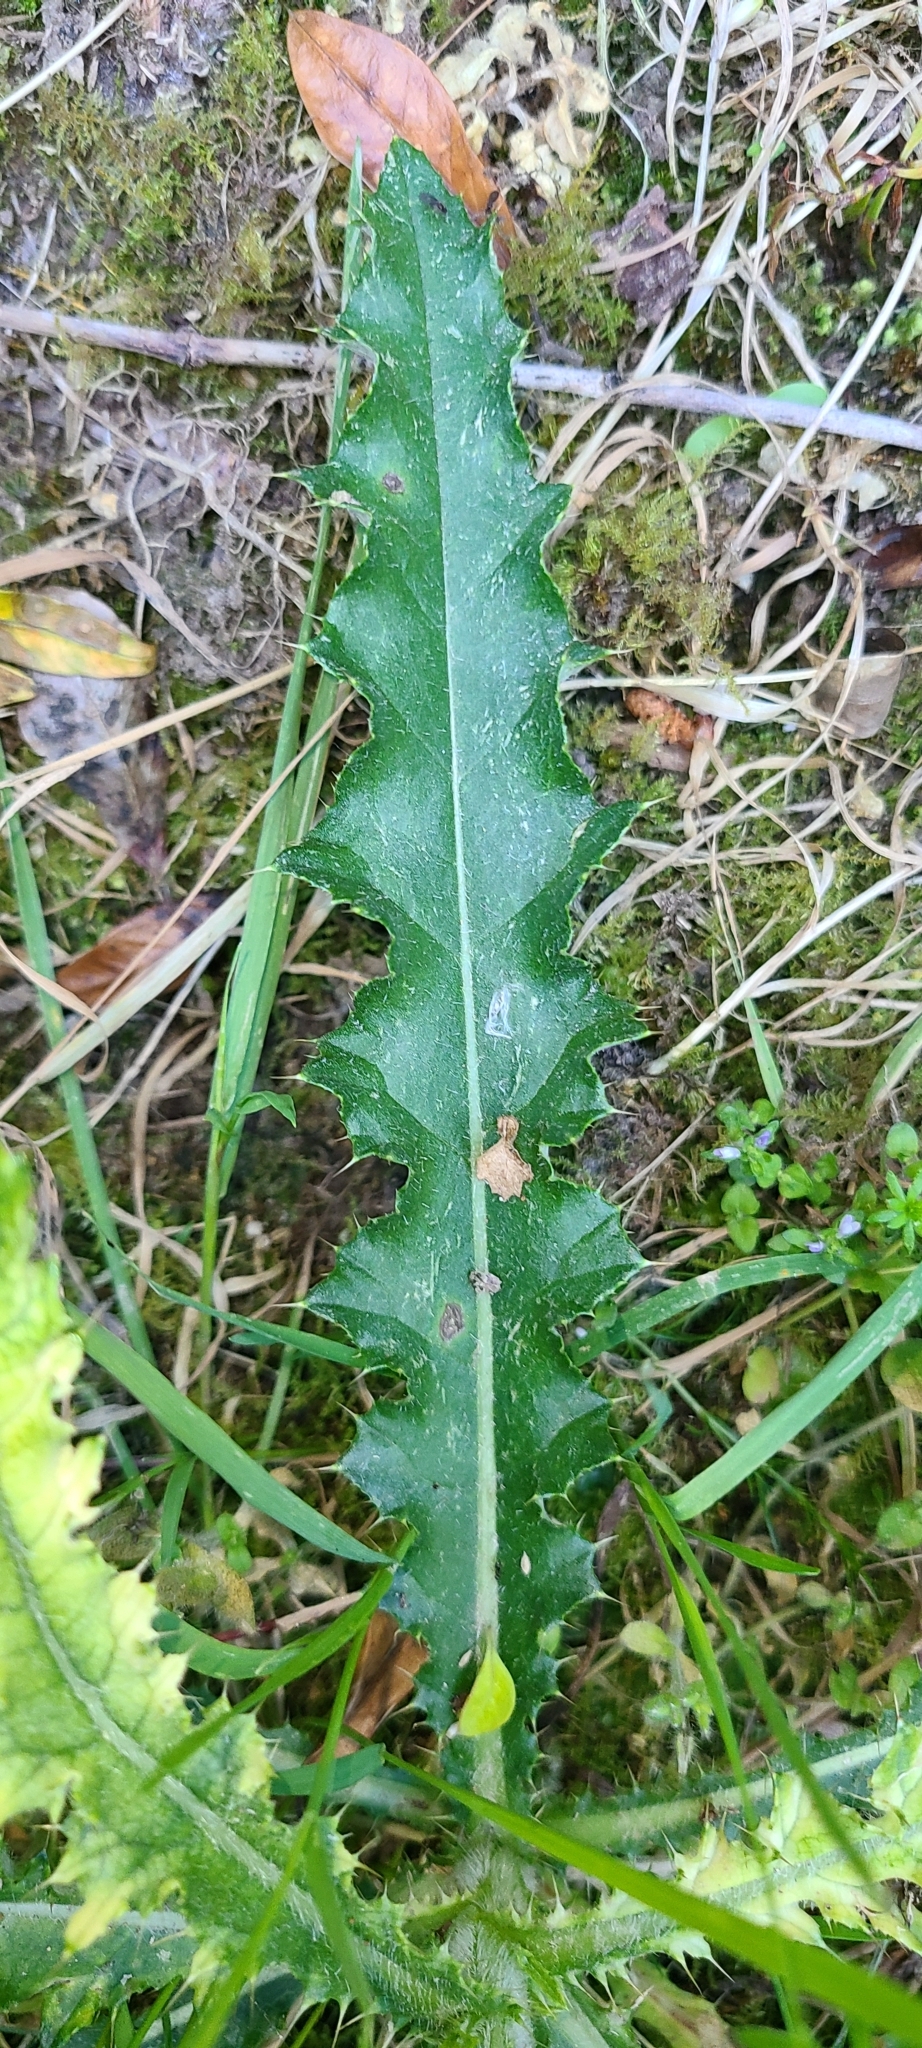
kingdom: Plantae
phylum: Tracheophyta
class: Magnoliopsida
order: Asterales
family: Asteraceae
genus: Sonchus
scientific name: Sonchus asper
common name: Prickly sow-thistle
